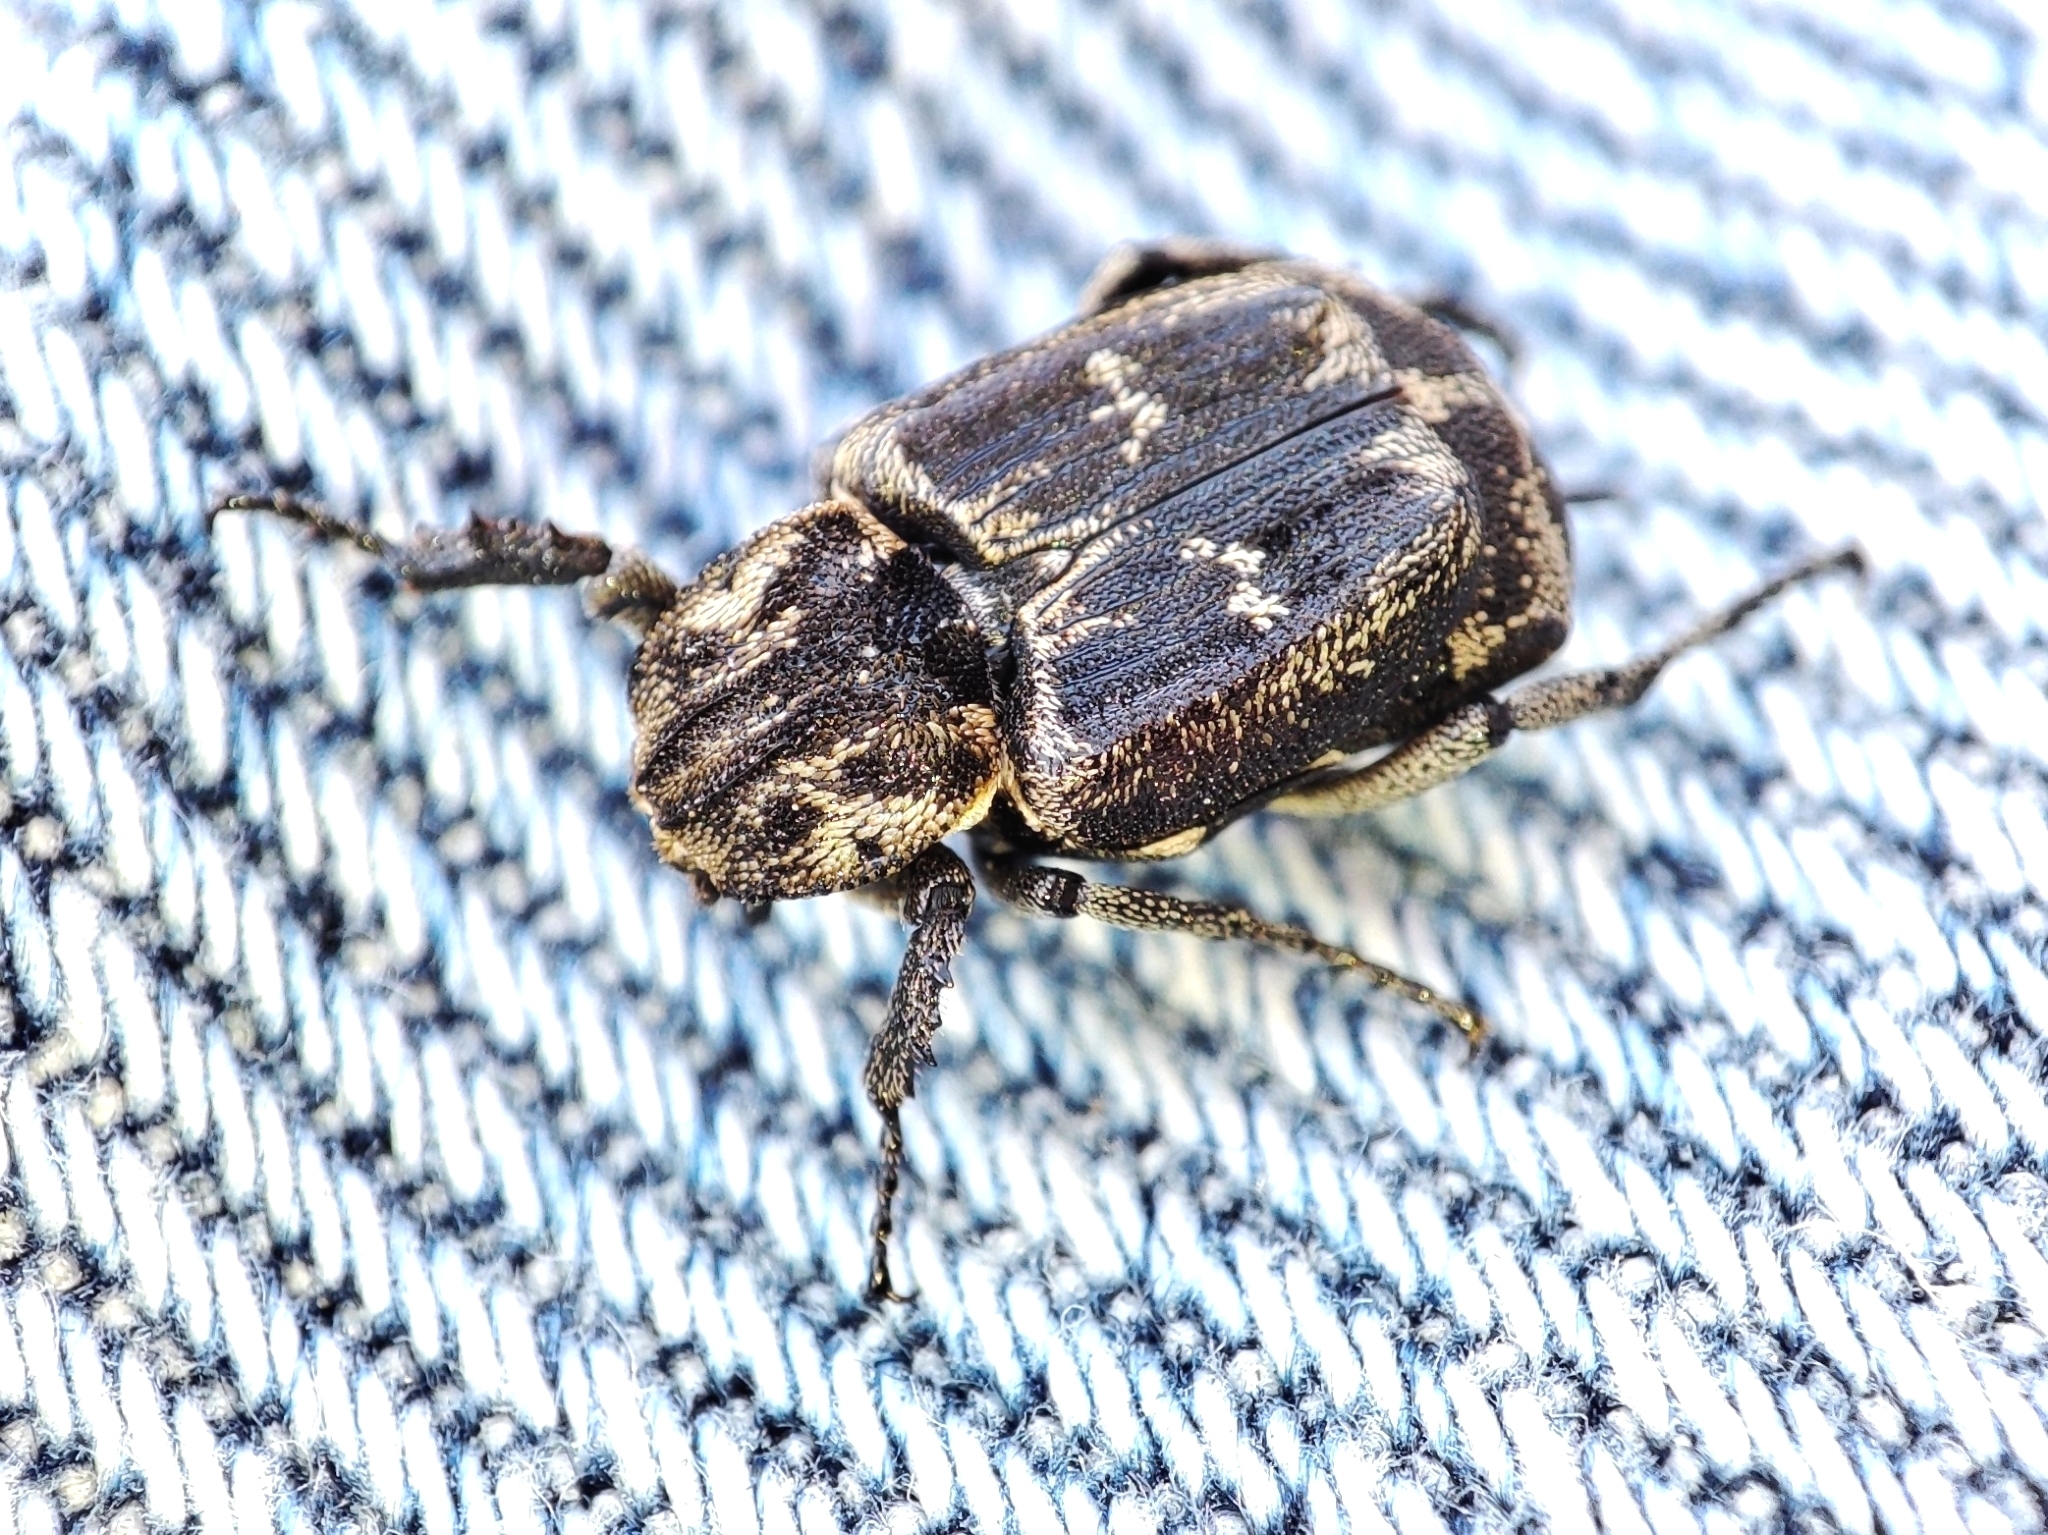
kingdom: Animalia
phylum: Arthropoda
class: Insecta
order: Coleoptera
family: Scarabaeidae
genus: Valgus
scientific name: Valgus hemipterus
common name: Bug flower chafer
